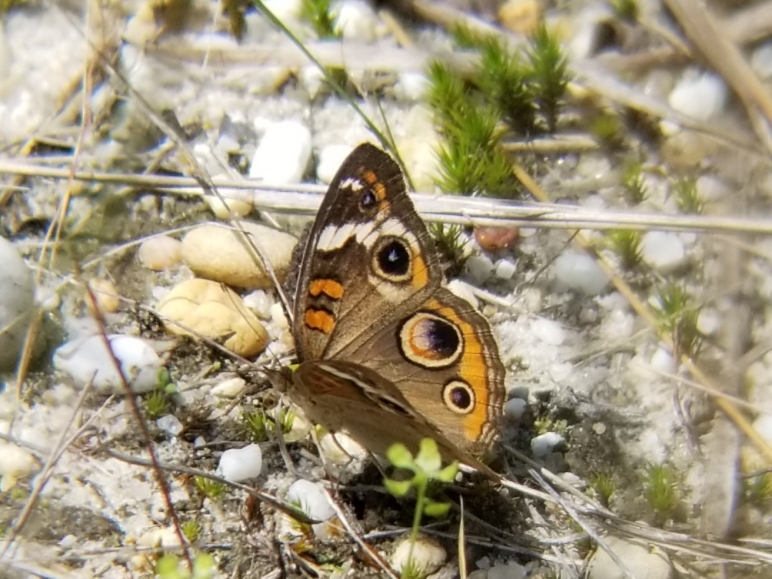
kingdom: Animalia
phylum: Arthropoda
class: Insecta
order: Lepidoptera
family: Nymphalidae
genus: Junonia
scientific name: Junonia coenia
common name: Common buckeye
